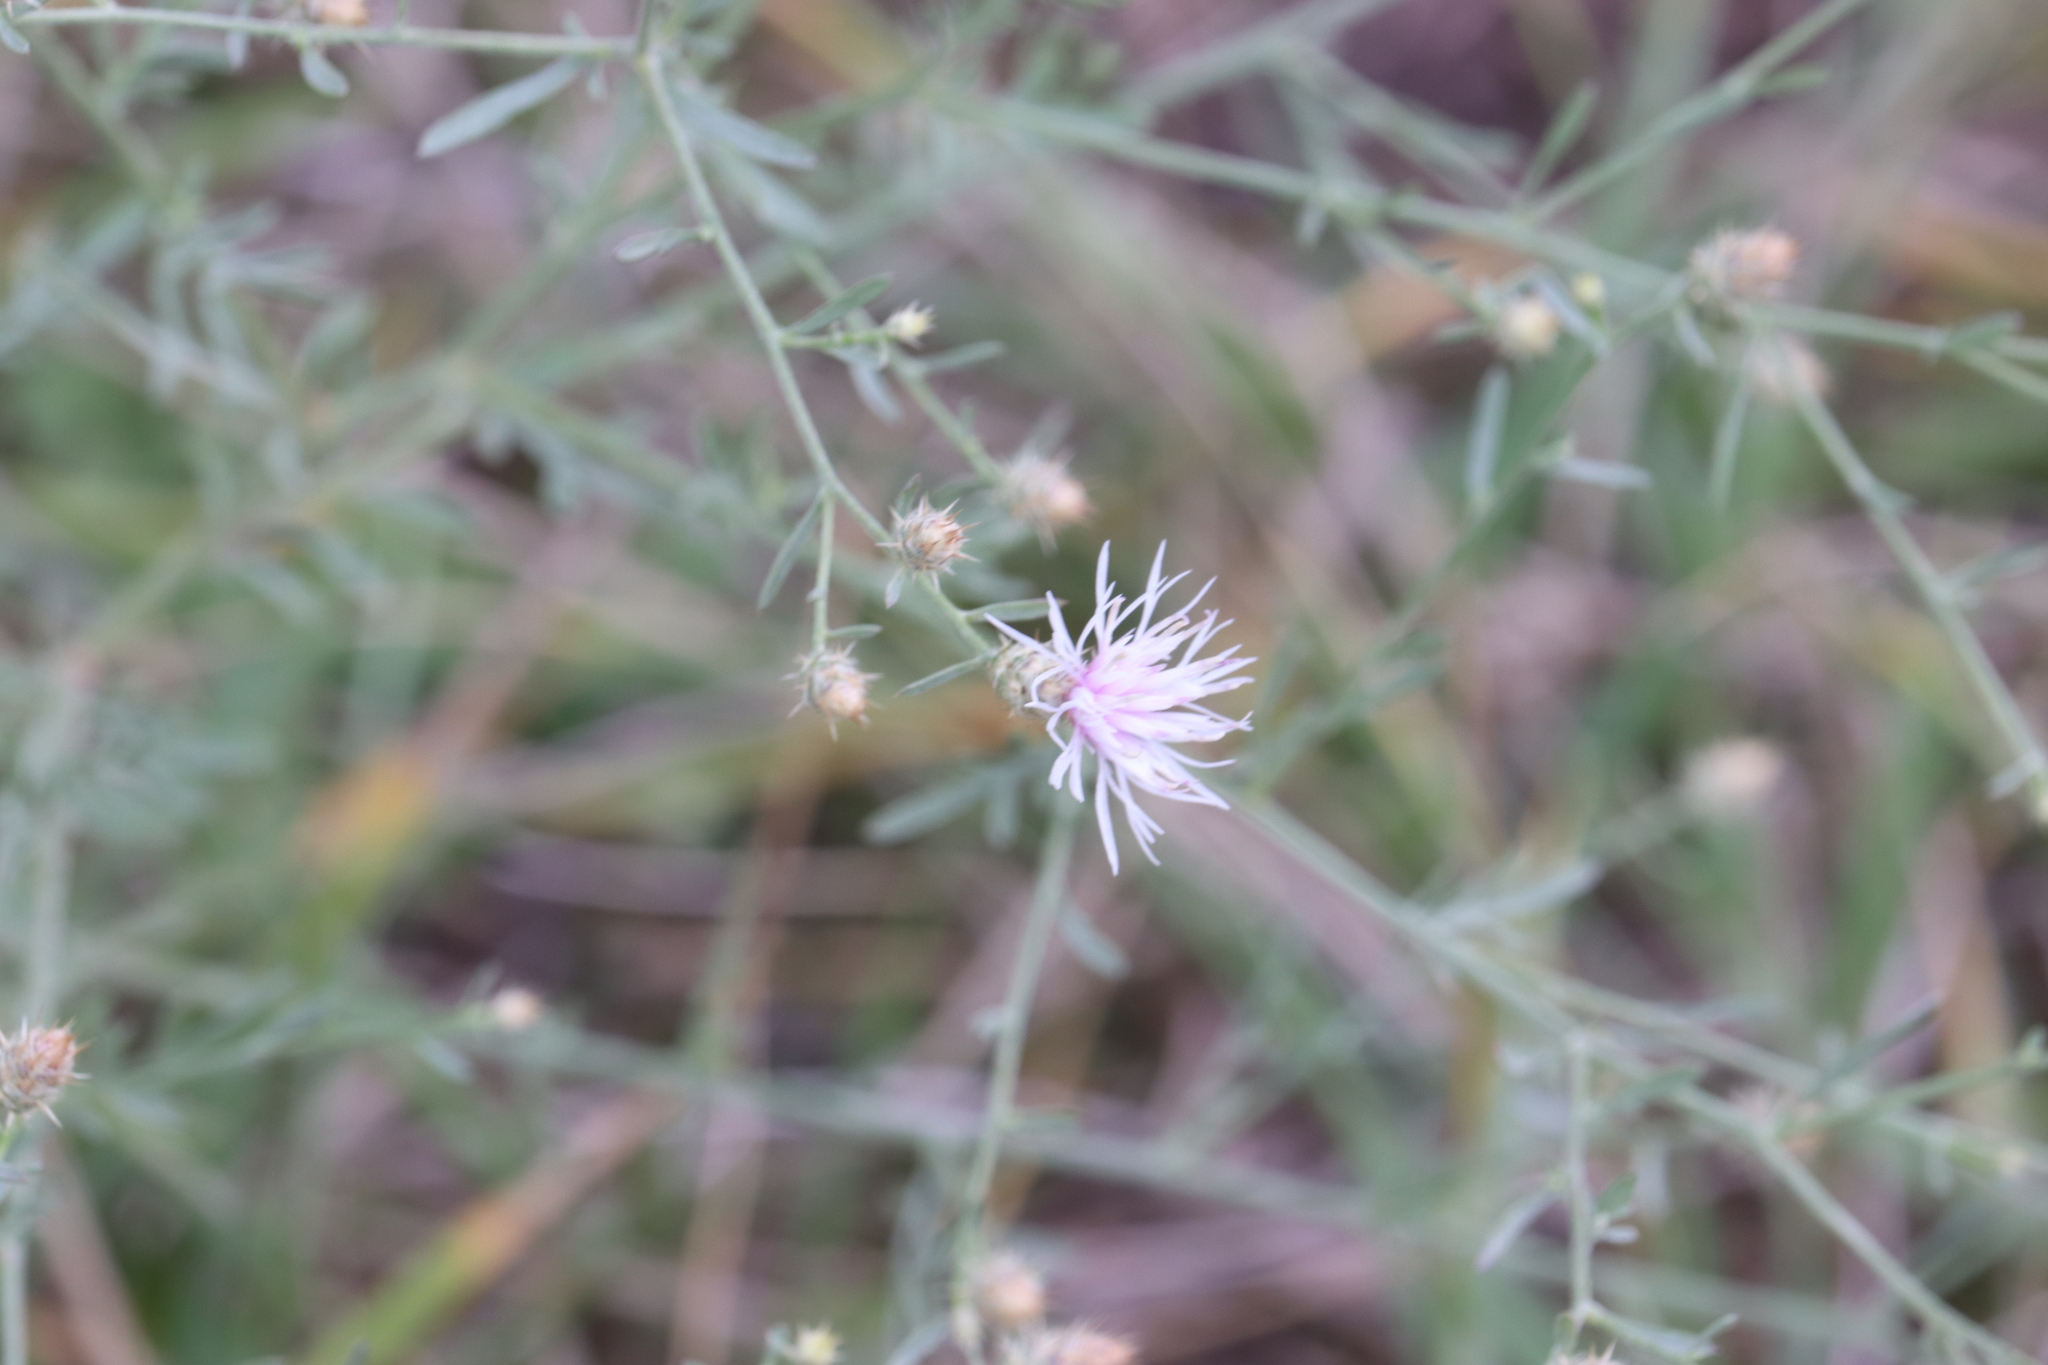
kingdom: Plantae
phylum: Tracheophyta
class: Magnoliopsida
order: Asterales
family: Asteraceae
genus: Centaurea
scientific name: Centaurea diffusa
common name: Diffuse knapweed
